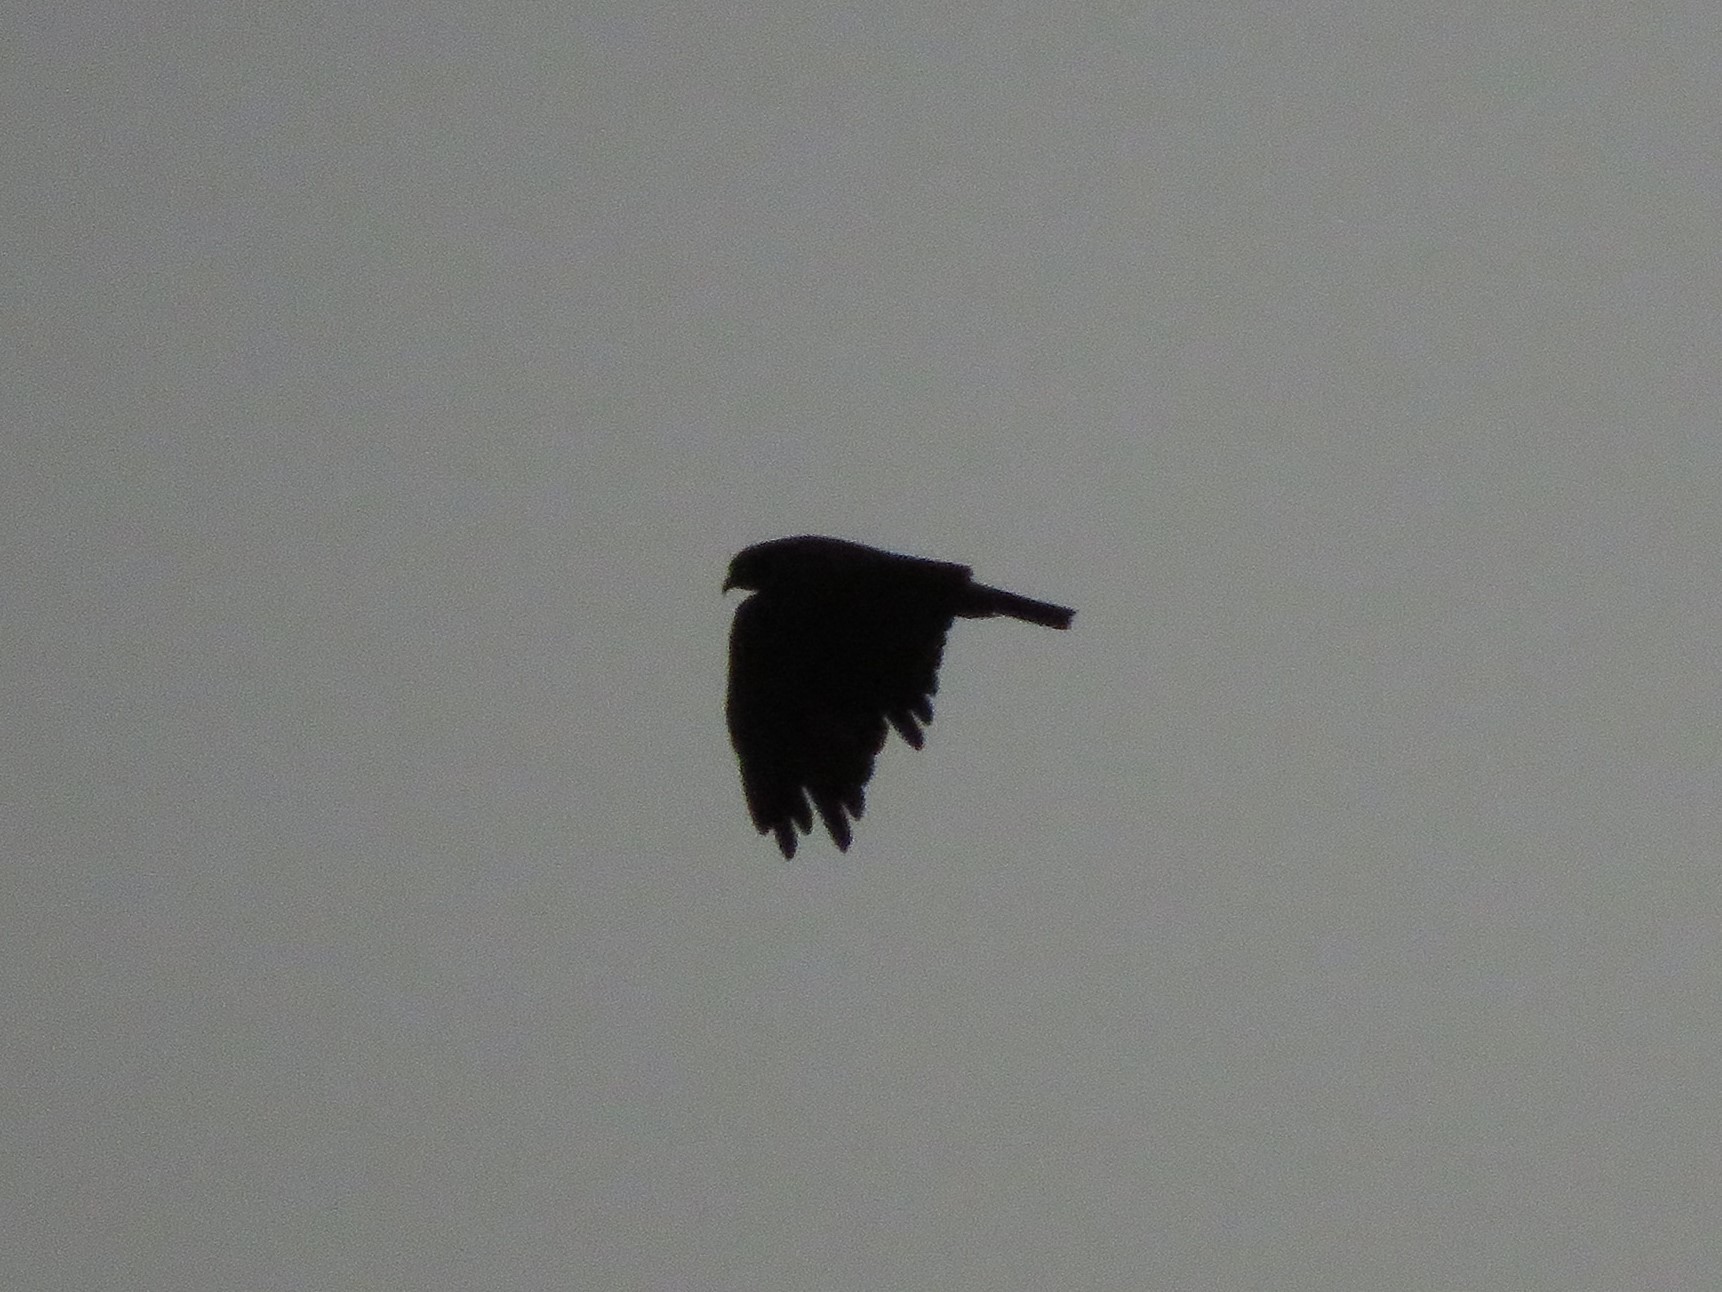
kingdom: Animalia
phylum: Chordata
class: Aves
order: Accipitriformes
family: Accipitridae
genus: Rostrhamus
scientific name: Rostrhamus sociabilis
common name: Snail kite
